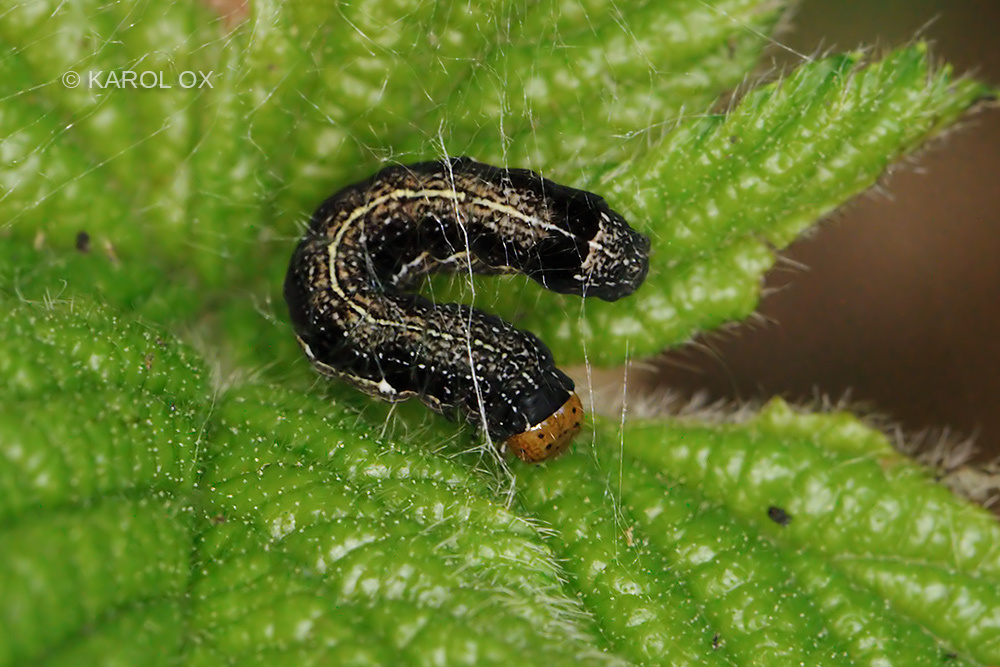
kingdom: Animalia
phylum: Arthropoda
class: Insecta
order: Lepidoptera
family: Noctuidae
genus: Anorthoa
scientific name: Anorthoa munda
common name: Twin-spotted quaker
